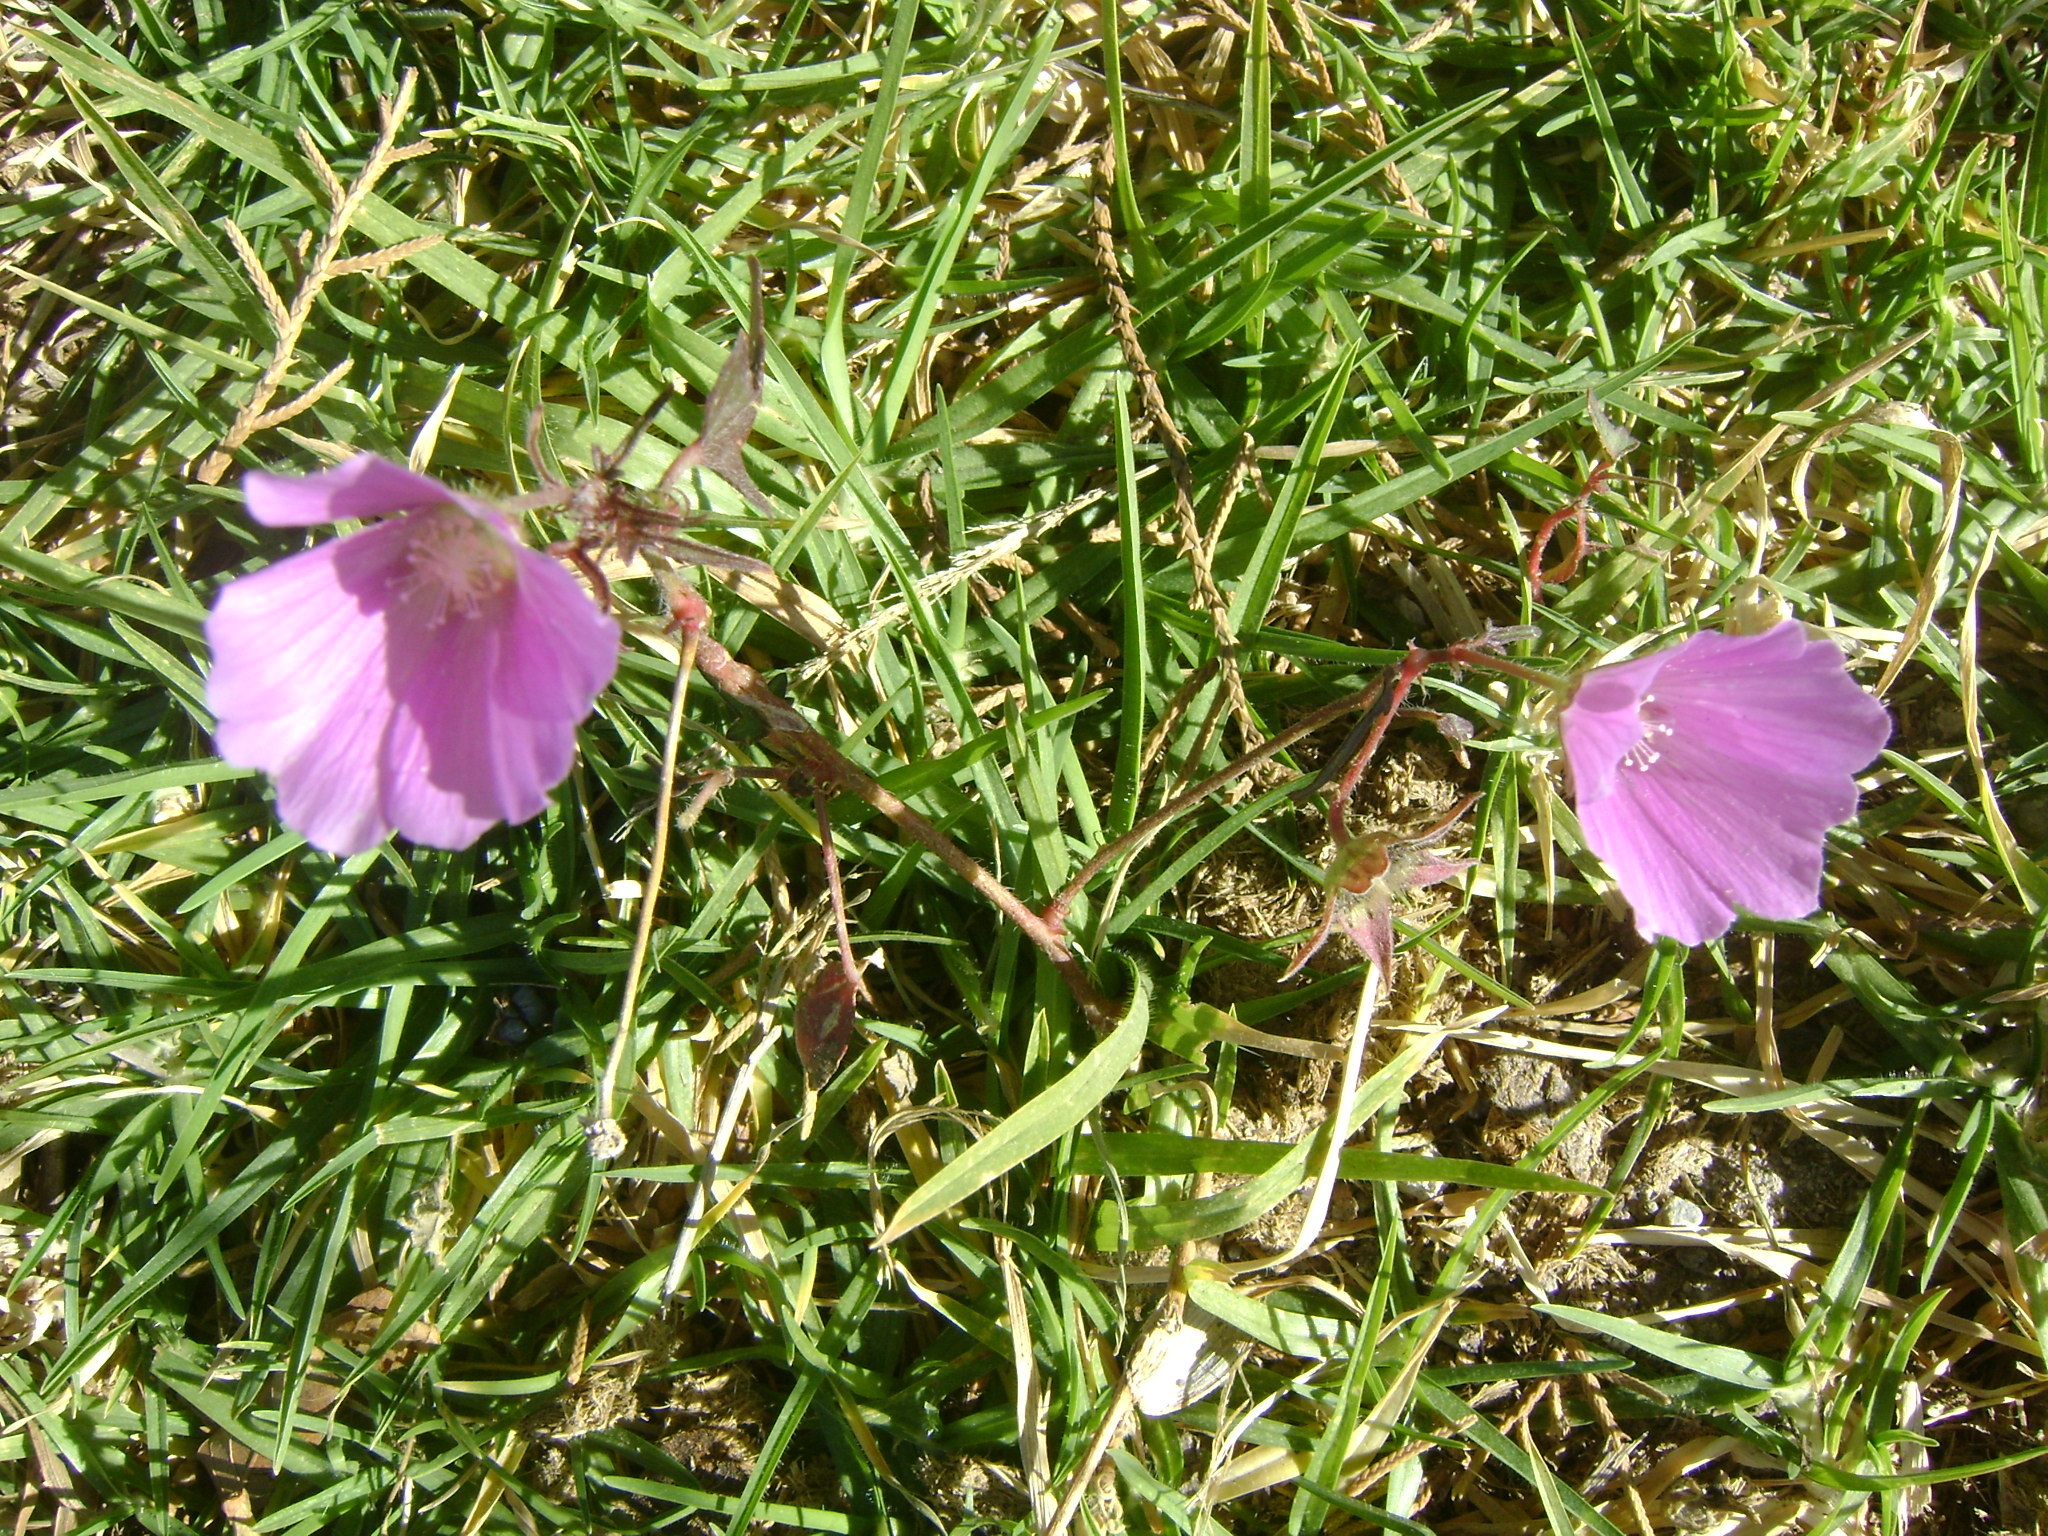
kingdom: Plantae
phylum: Tracheophyta
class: Magnoliopsida
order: Malvales
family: Malvaceae
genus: Anoda
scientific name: Anoda cristata
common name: Spurred anoda
